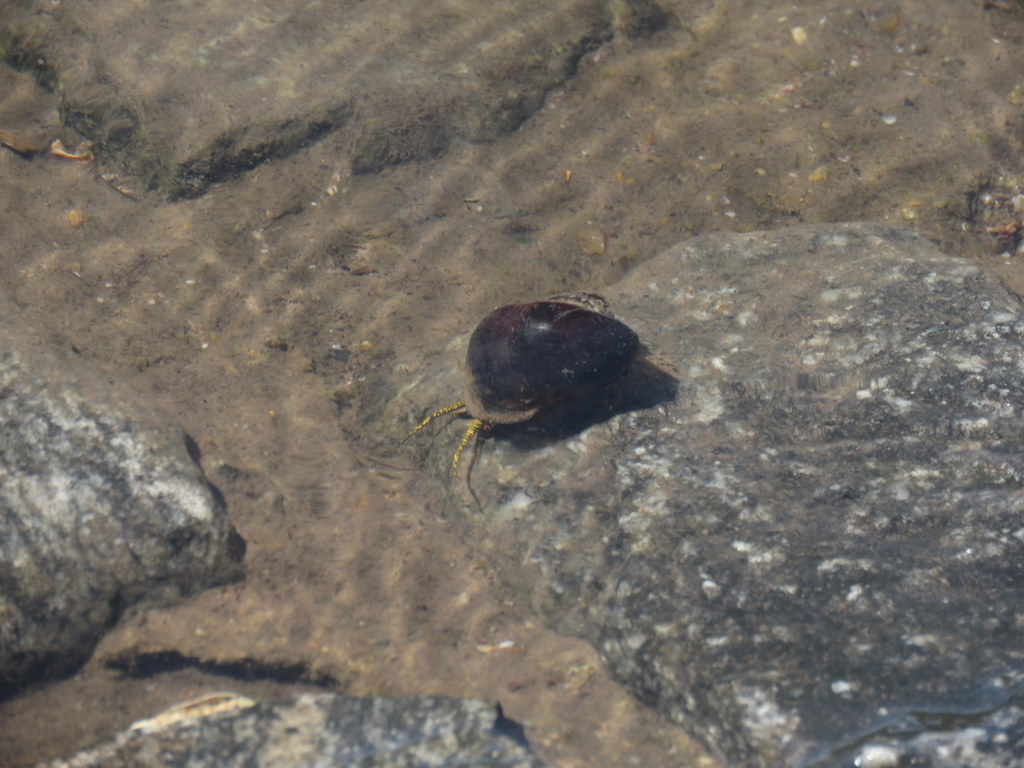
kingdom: Animalia
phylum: Mollusca
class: Gastropoda
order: Architaenioglossa
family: Ampullariidae
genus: Pomacea
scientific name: Pomacea scalaris
